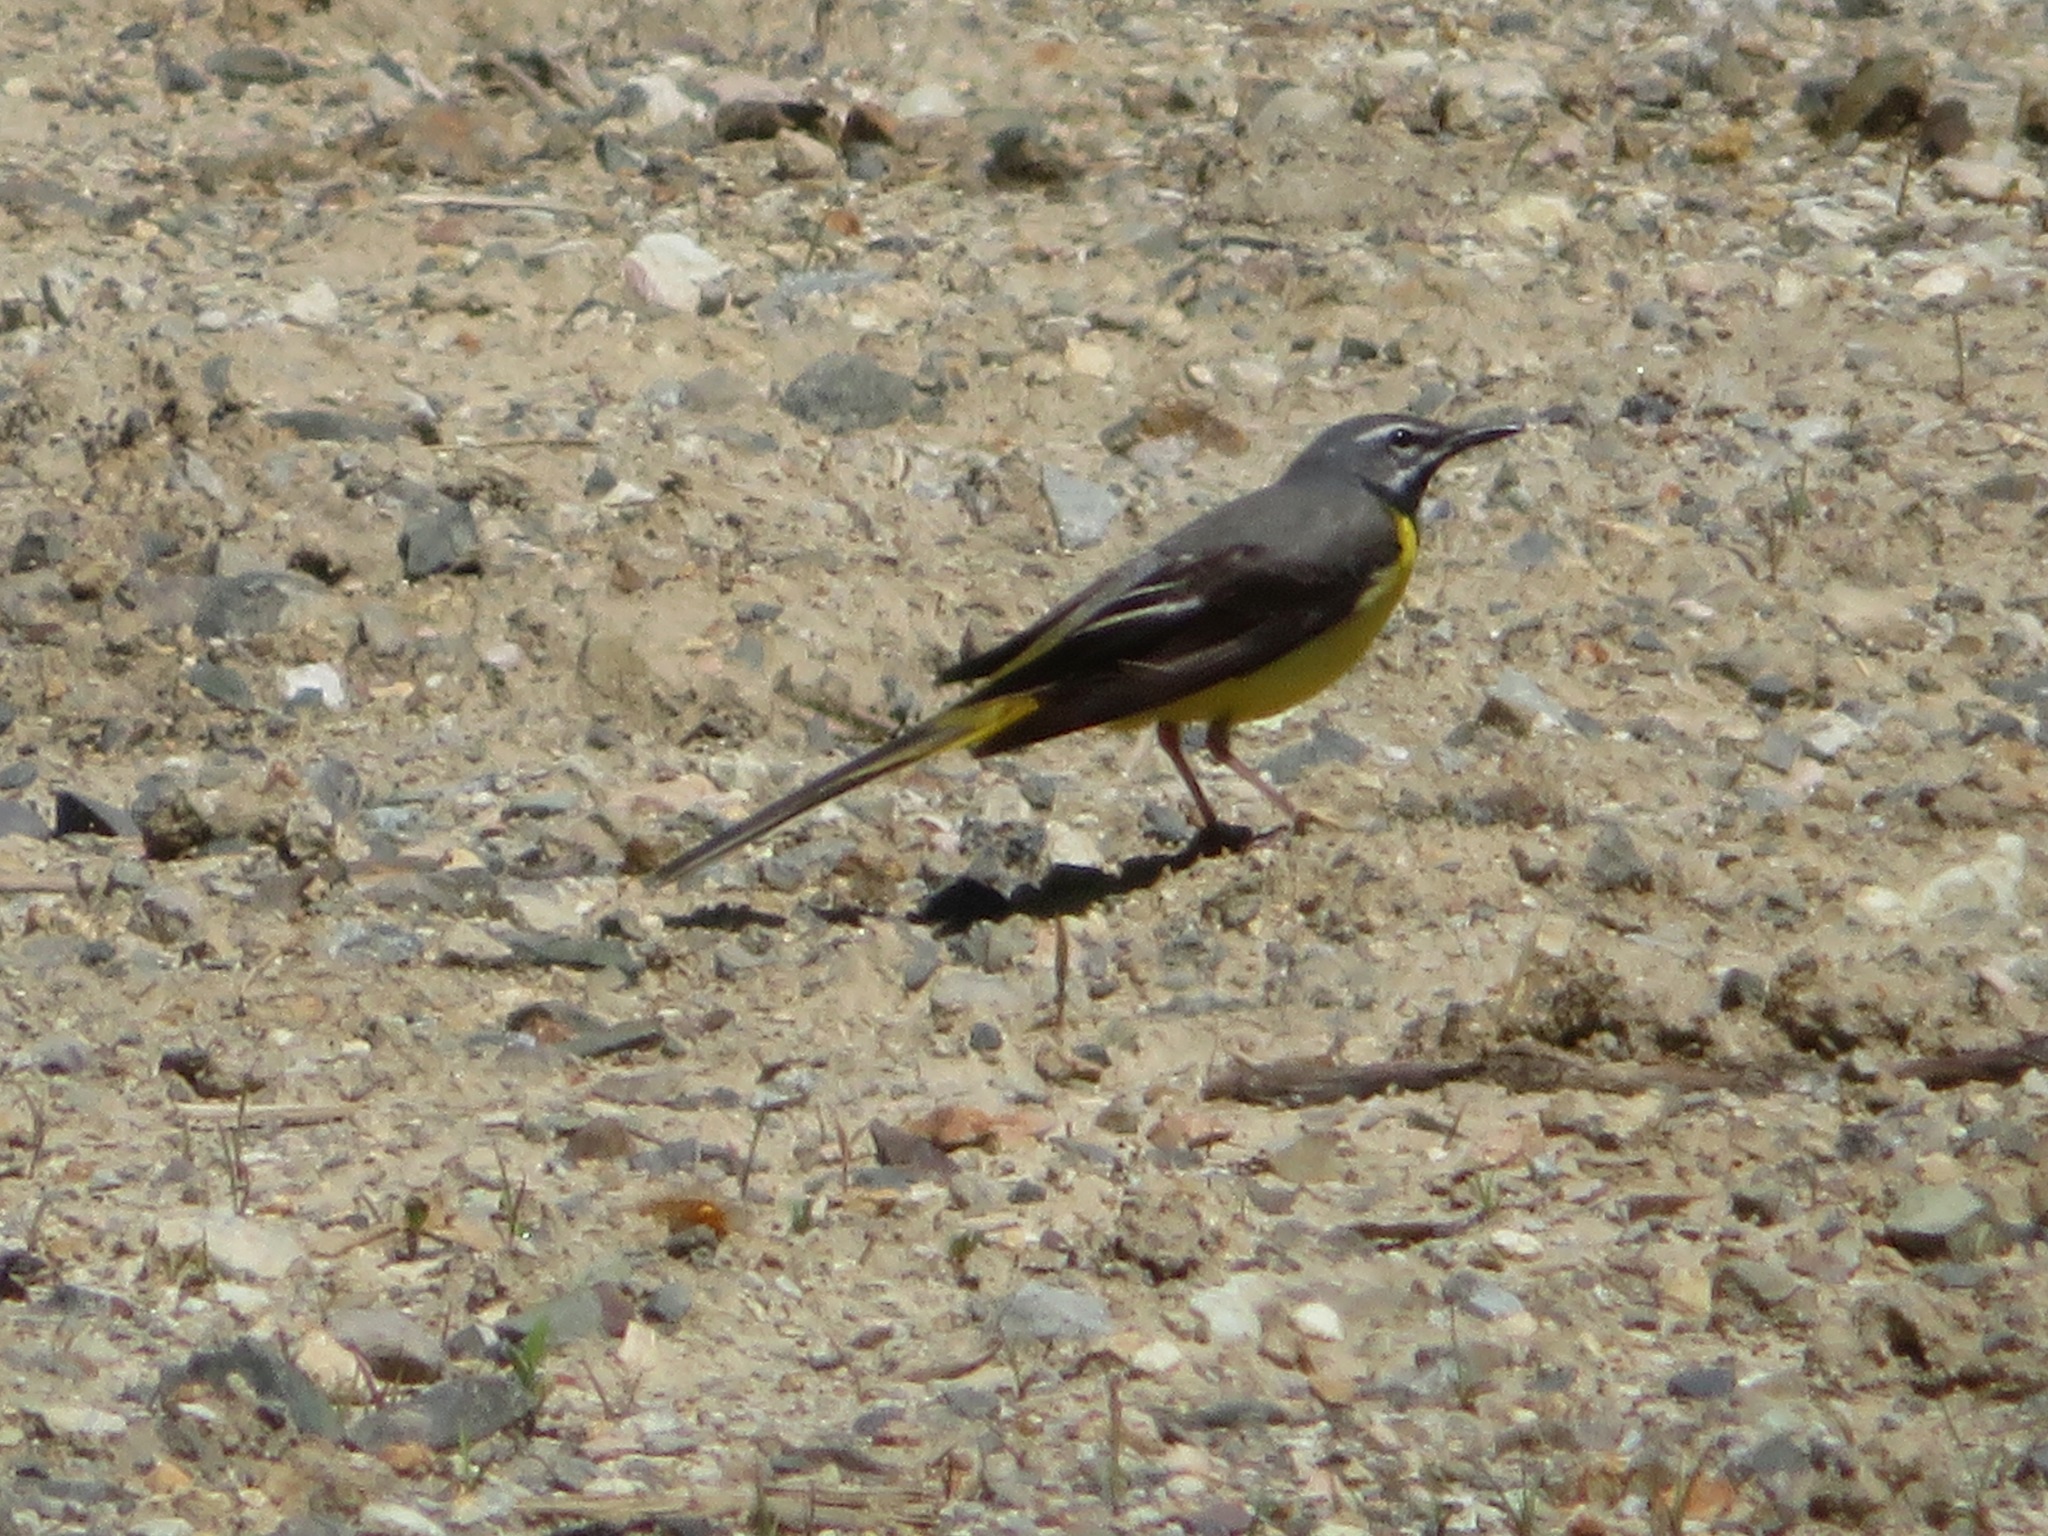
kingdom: Animalia
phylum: Chordata
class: Aves
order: Passeriformes
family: Motacillidae
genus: Motacilla
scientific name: Motacilla cinerea
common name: Grey wagtail
